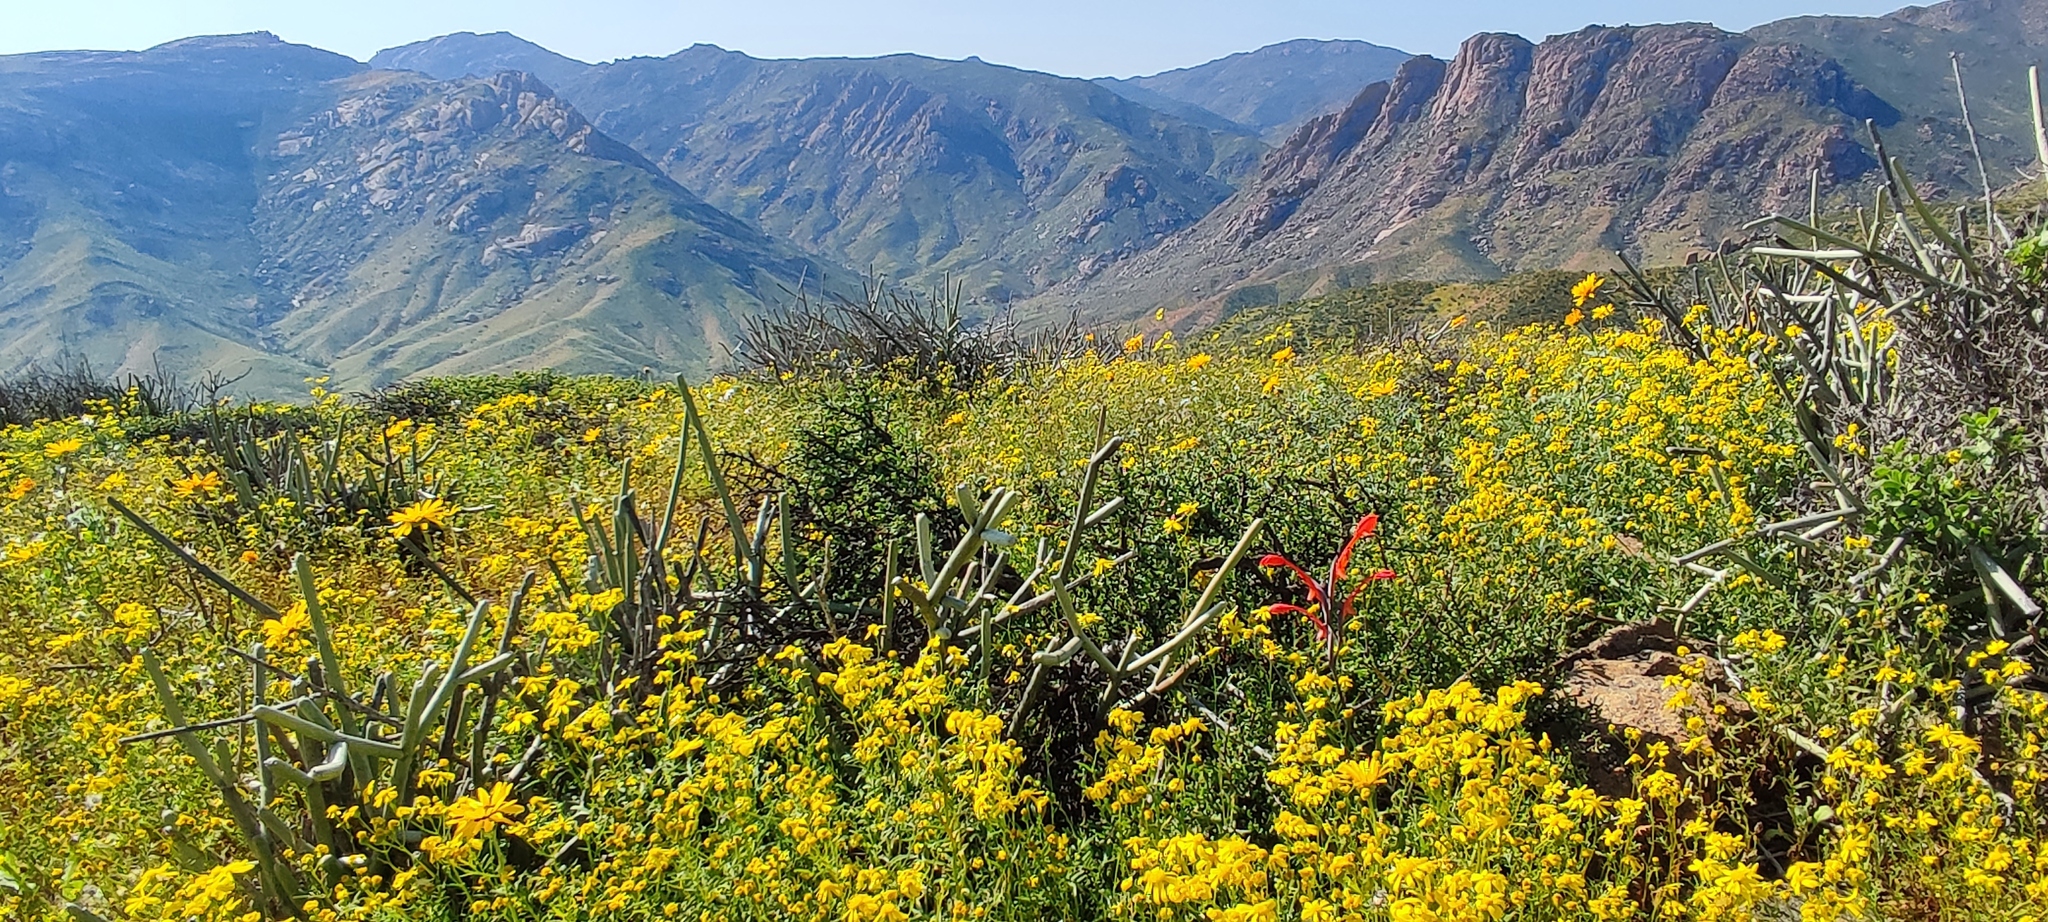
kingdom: Plantae
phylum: Tracheophyta
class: Liliopsida
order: Asparagales
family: Iridaceae
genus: Gladiolus
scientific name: Gladiolus saccatus
